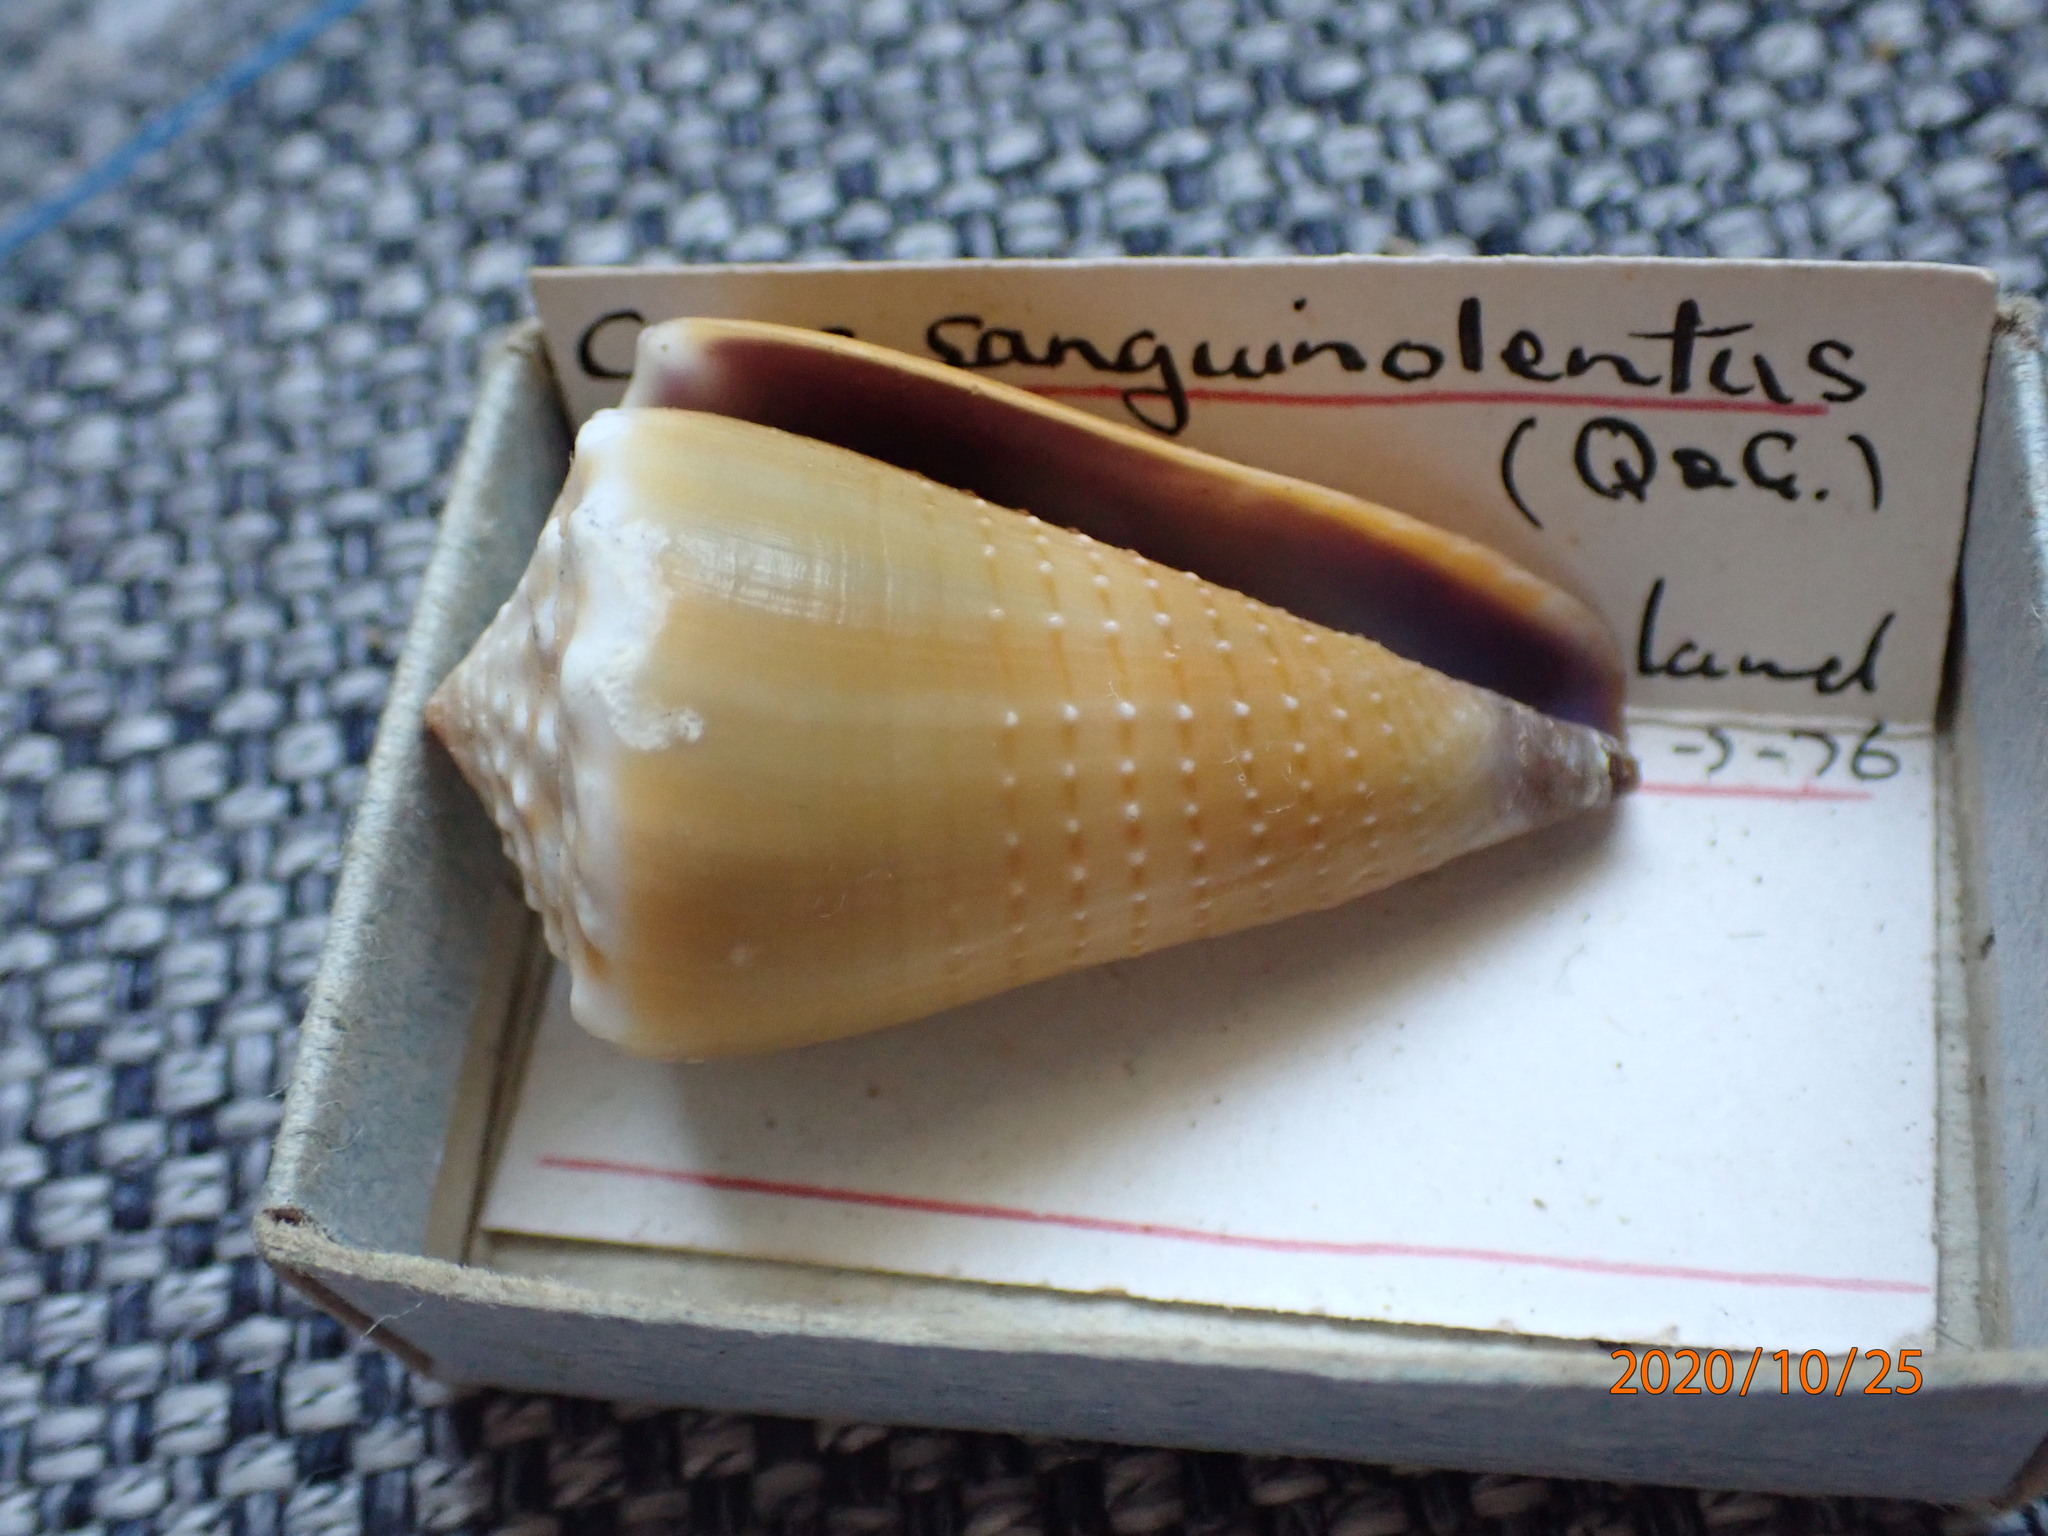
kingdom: Animalia
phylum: Mollusca
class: Gastropoda
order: Neogastropoda
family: Conidae
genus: Conus
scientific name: Conus sanguinolentus
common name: Blood-stained cone
